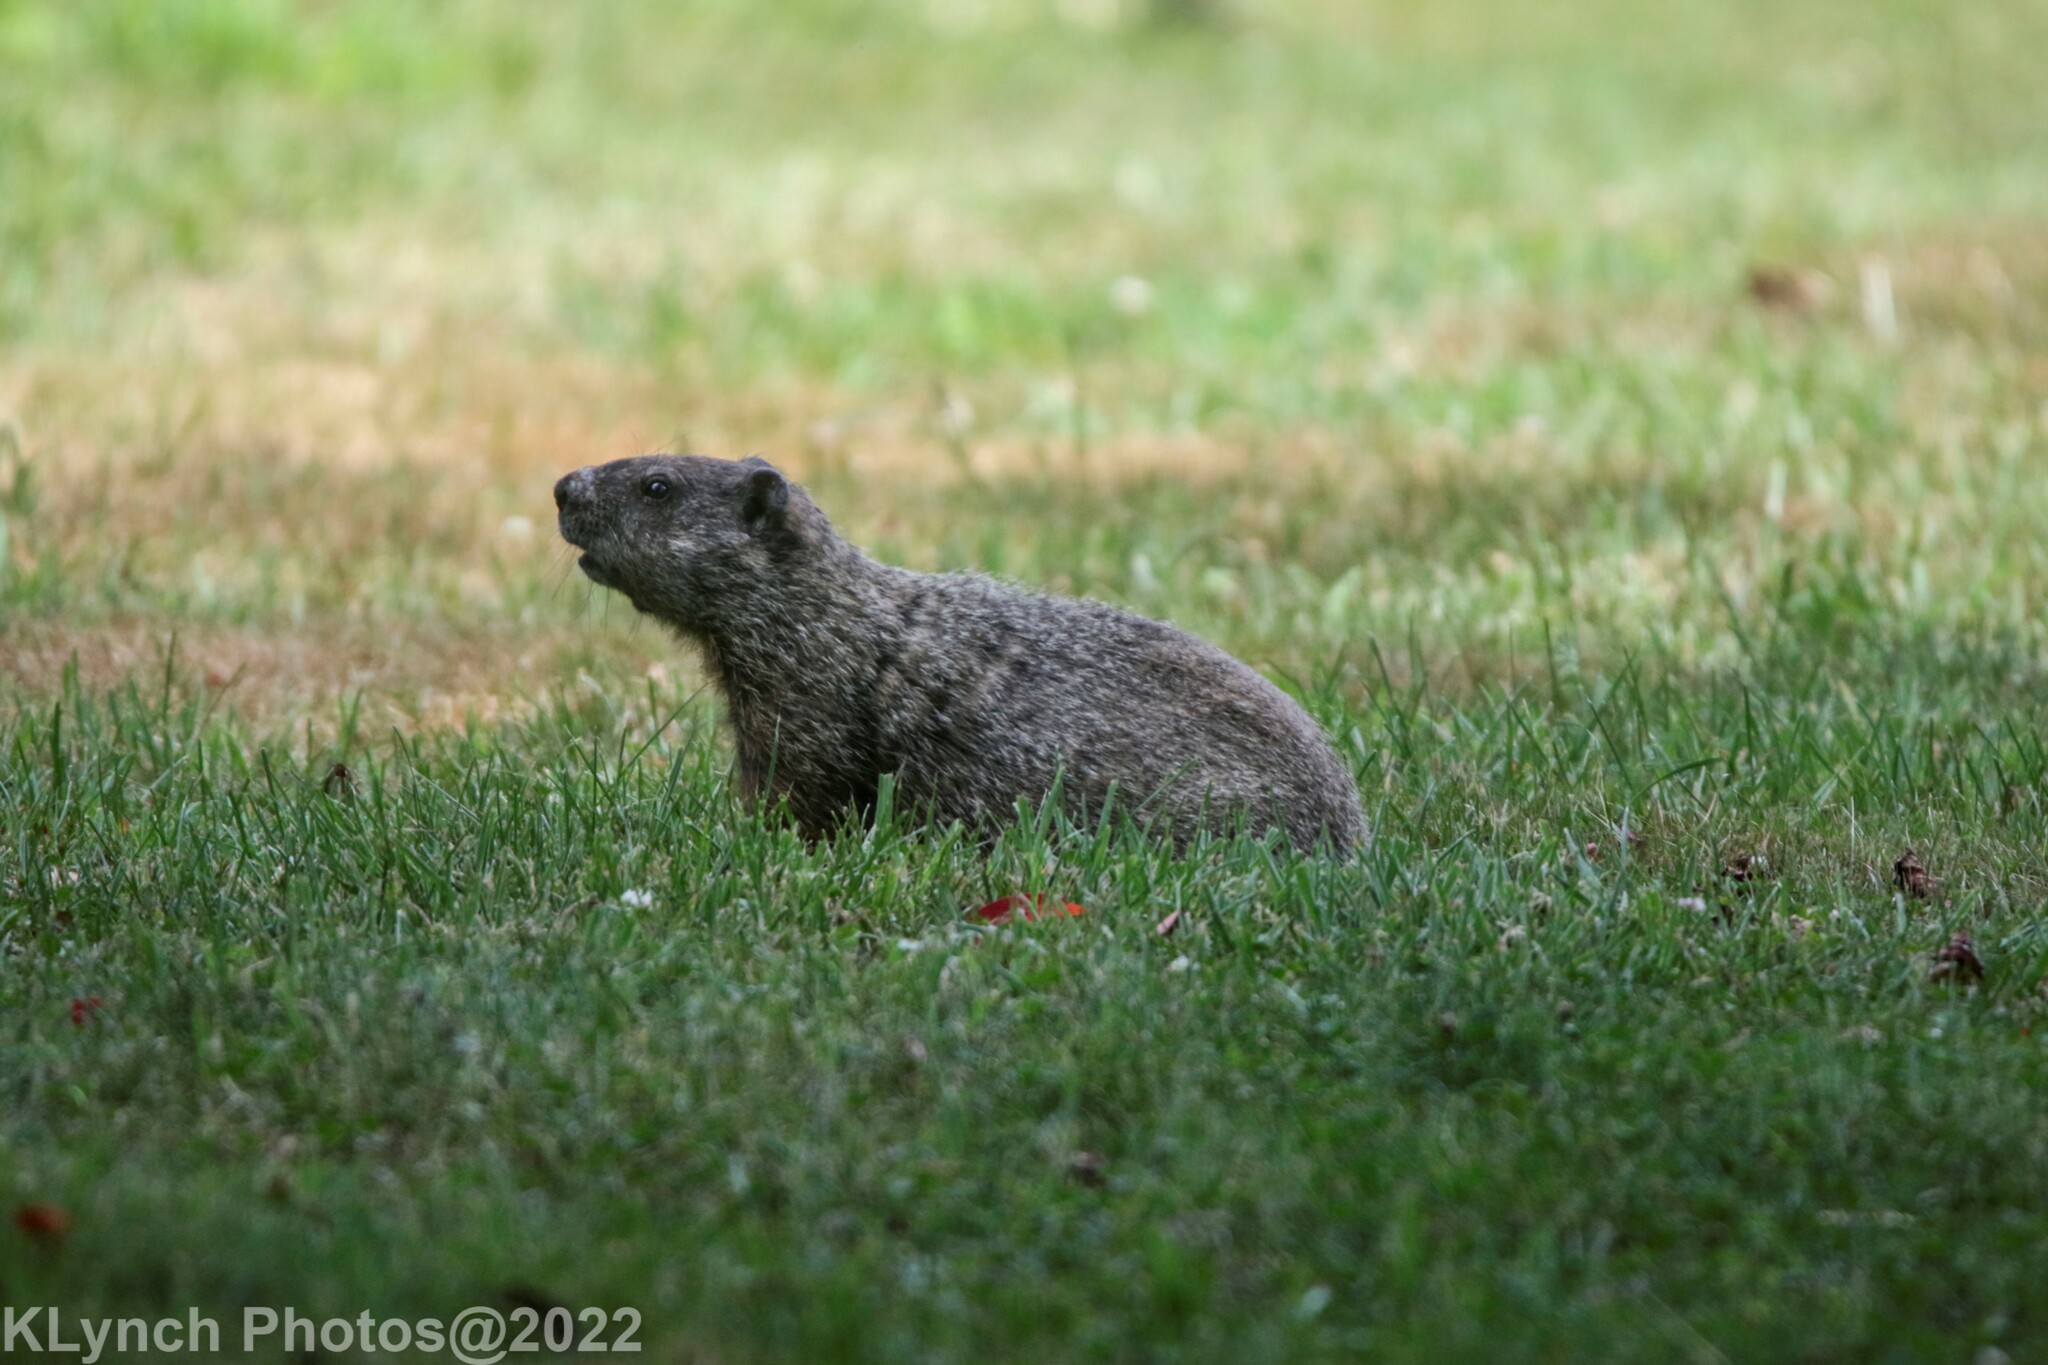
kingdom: Animalia
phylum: Chordata
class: Mammalia
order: Rodentia
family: Sciuridae
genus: Marmota
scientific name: Marmota monax
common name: Groundhog
